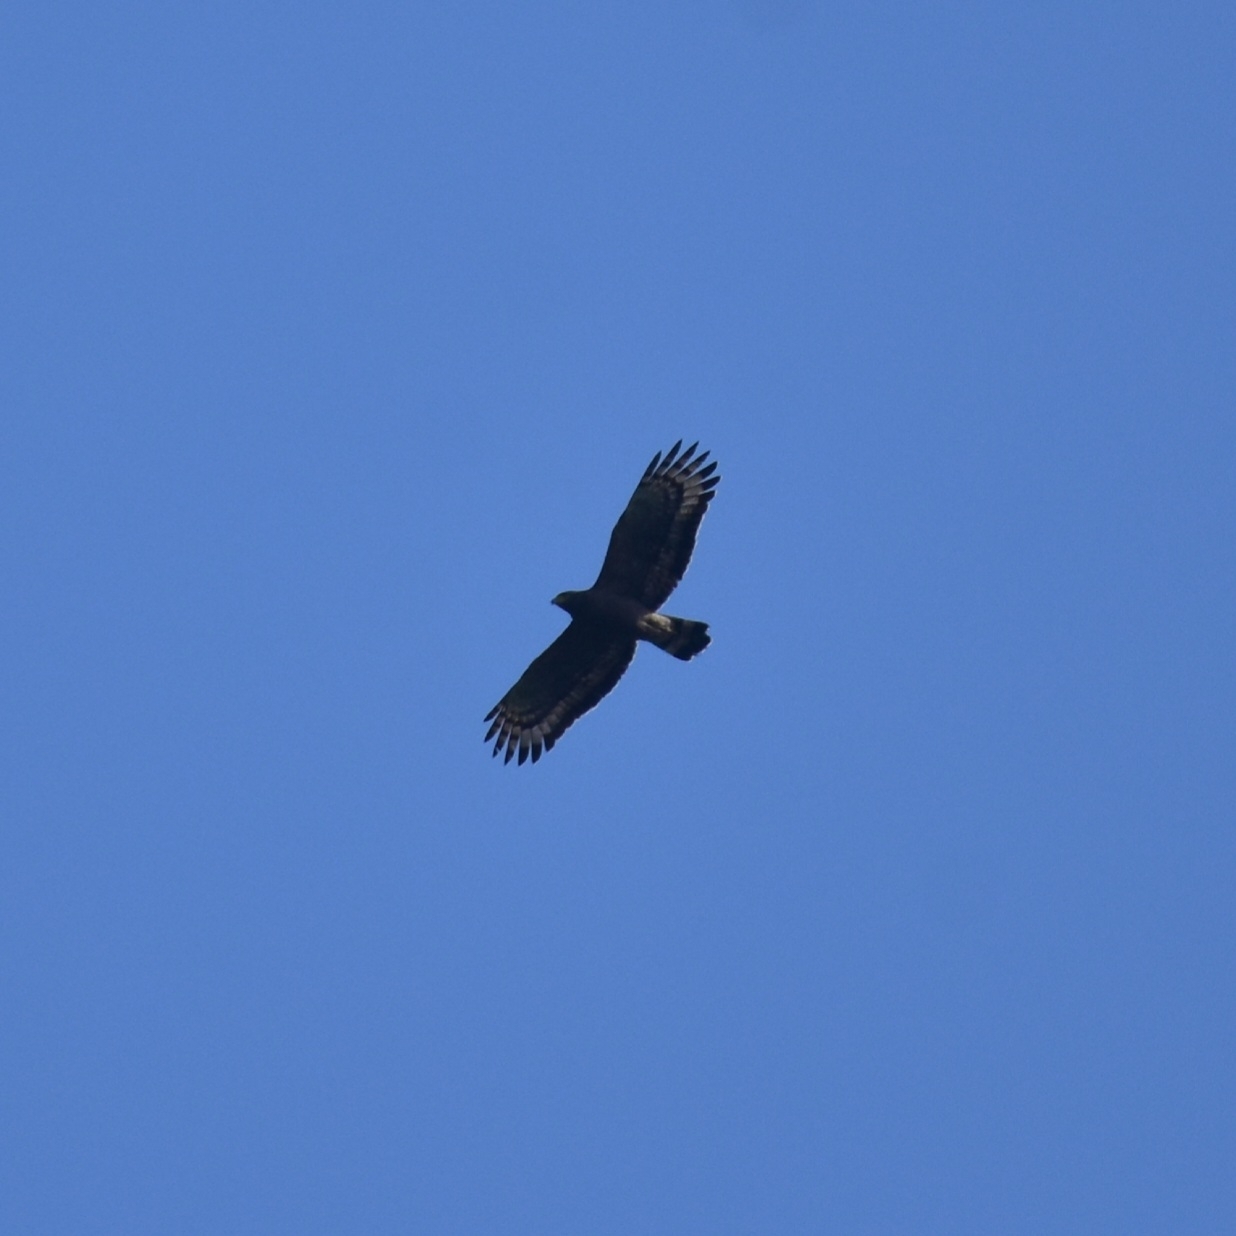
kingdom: Animalia
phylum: Chordata
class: Aves
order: Accipitriformes
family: Accipitridae
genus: Spilornis
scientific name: Spilornis cheela
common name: Crested serpent eagle
